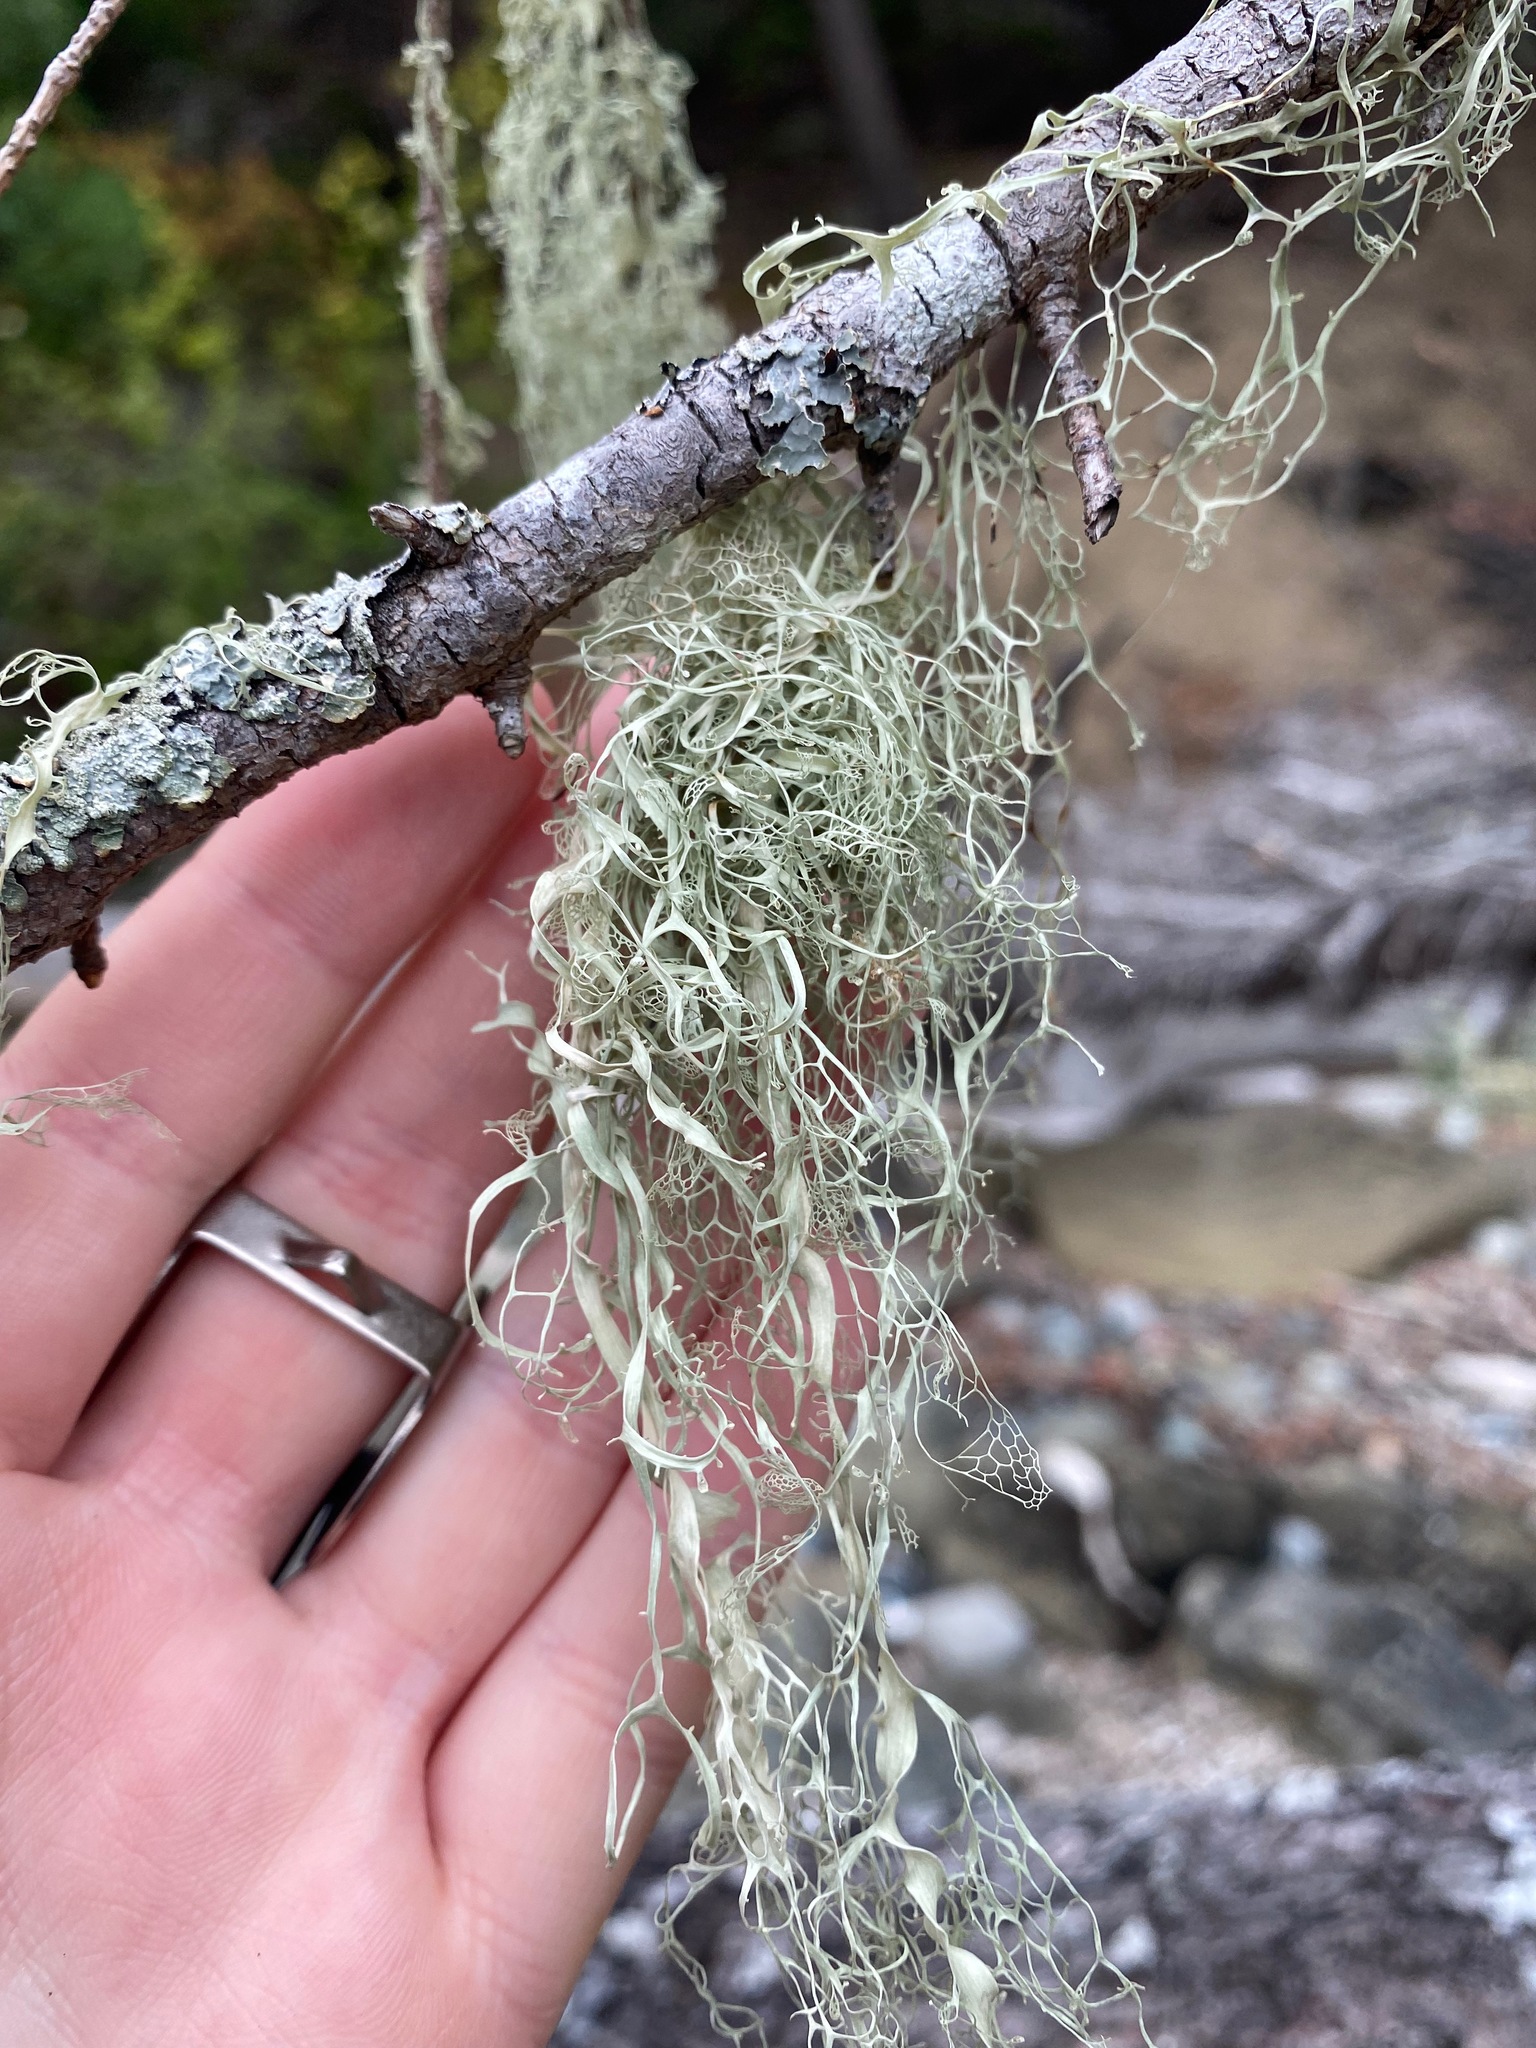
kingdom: Fungi
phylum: Ascomycota
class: Lecanoromycetes
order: Lecanorales
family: Ramalinaceae
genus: Ramalina
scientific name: Ramalina menziesii
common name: Lace lichen
